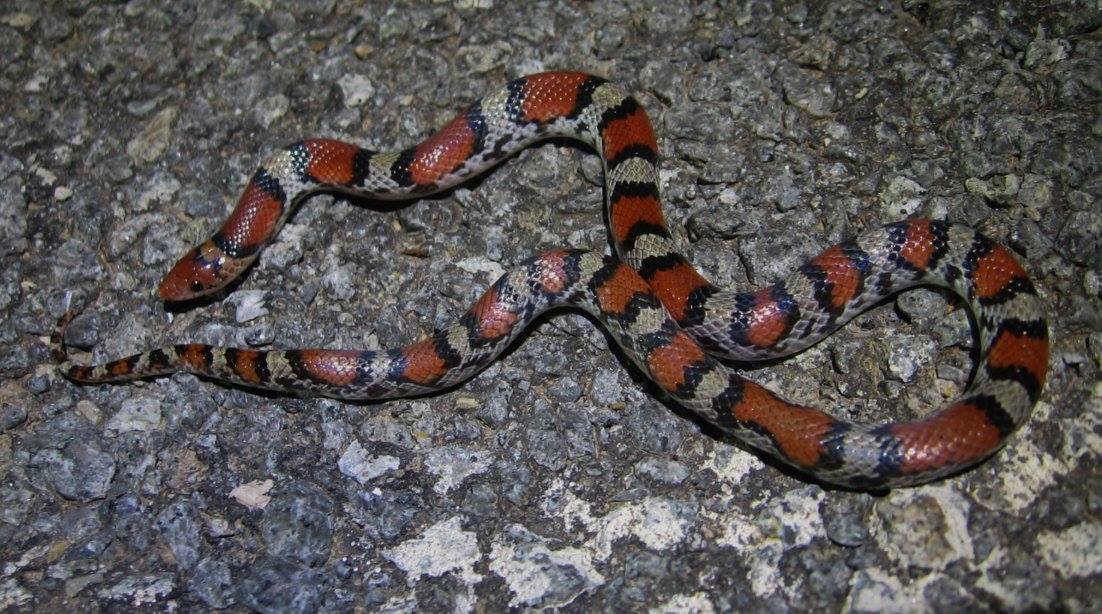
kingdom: Animalia
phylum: Chordata
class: Squamata
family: Colubridae
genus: Cemophora
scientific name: Cemophora coccinea
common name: Scarlet snake
